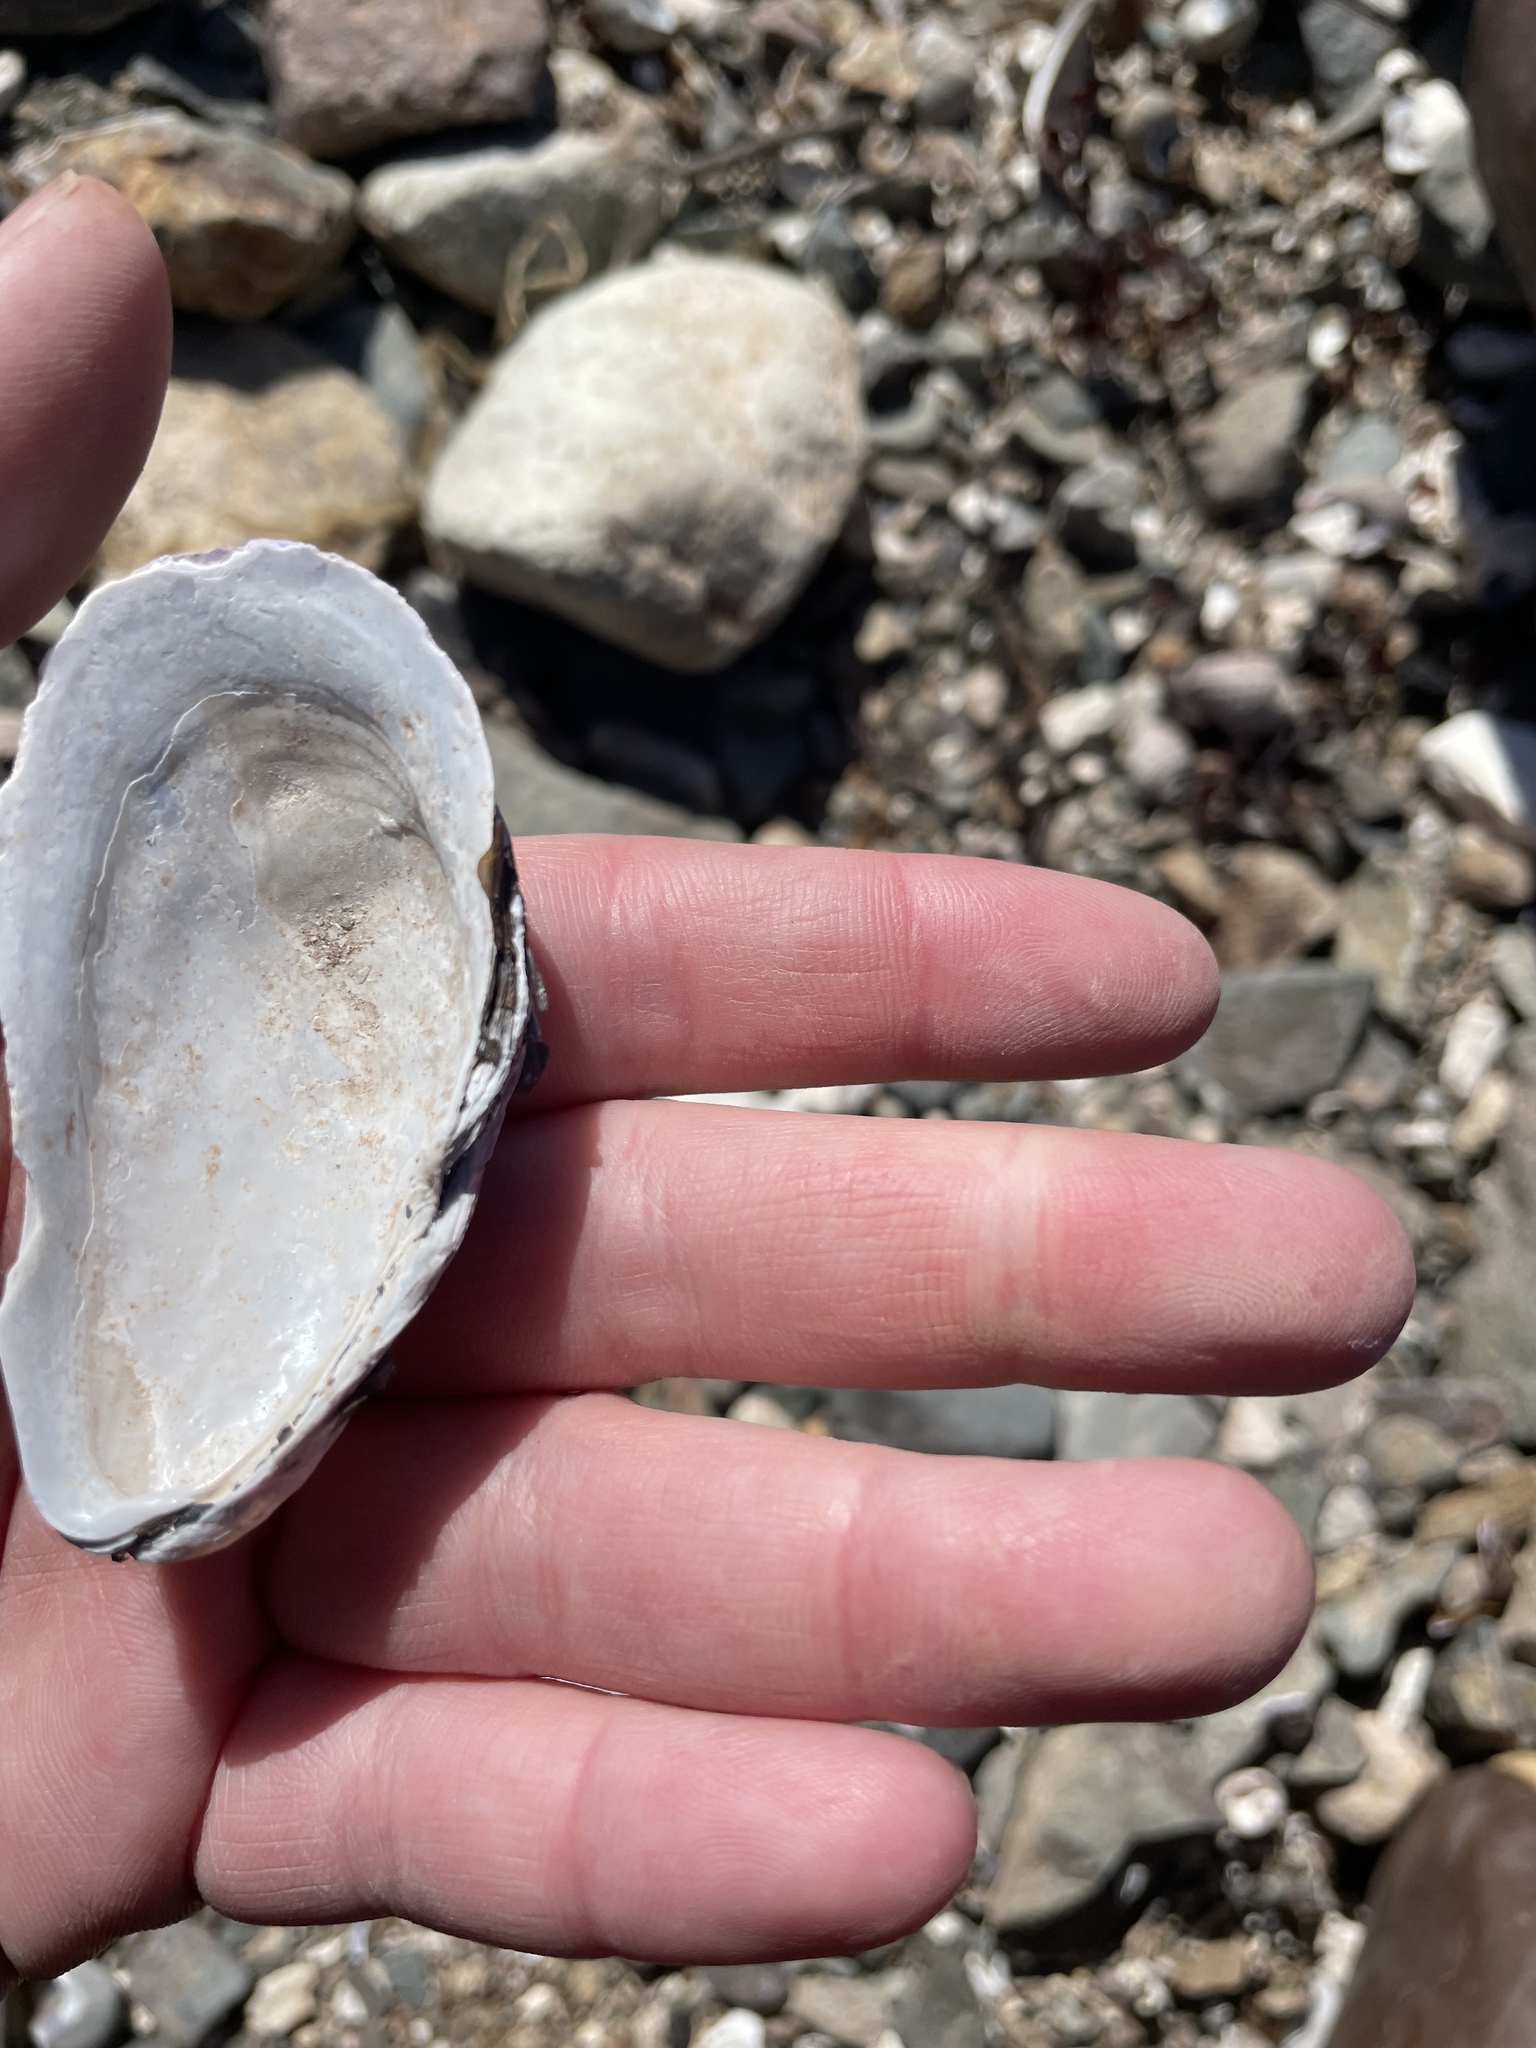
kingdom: Animalia
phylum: Mollusca
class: Bivalvia
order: Mytilida
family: Mytilidae
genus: Modiolus
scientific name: Modiolus modiolus
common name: Horse-mussel
